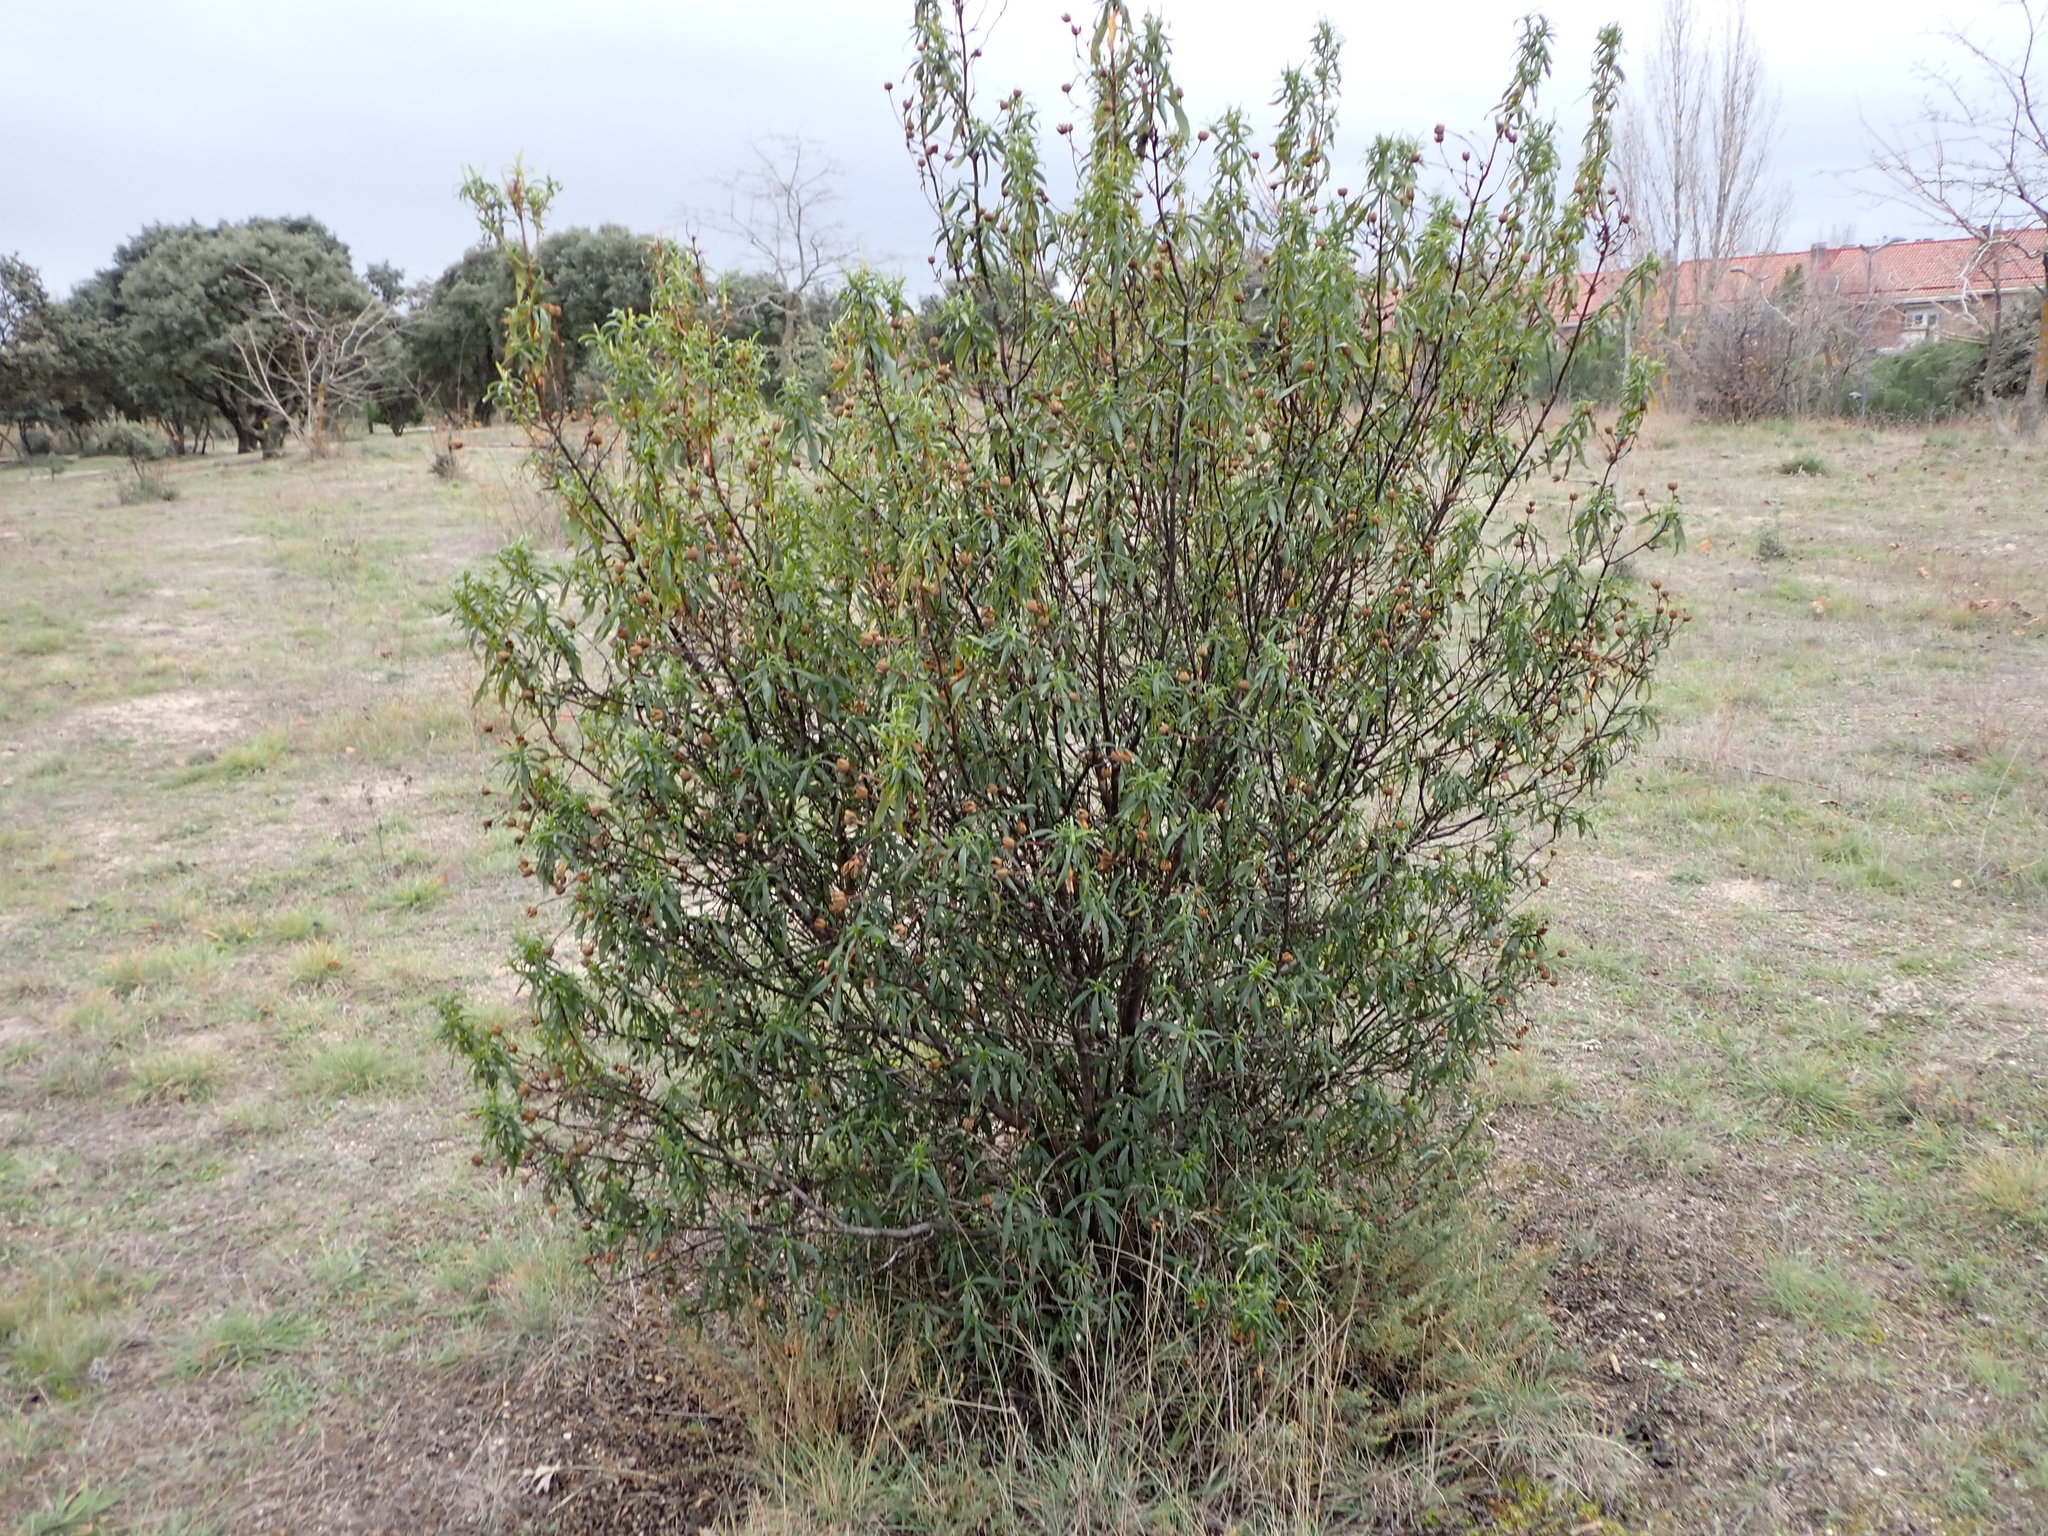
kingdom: Plantae
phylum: Tracheophyta
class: Magnoliopsida
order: Malvales
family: Cistaceae
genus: Cistus
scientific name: Cistus ladanifer
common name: Common gum cistus
